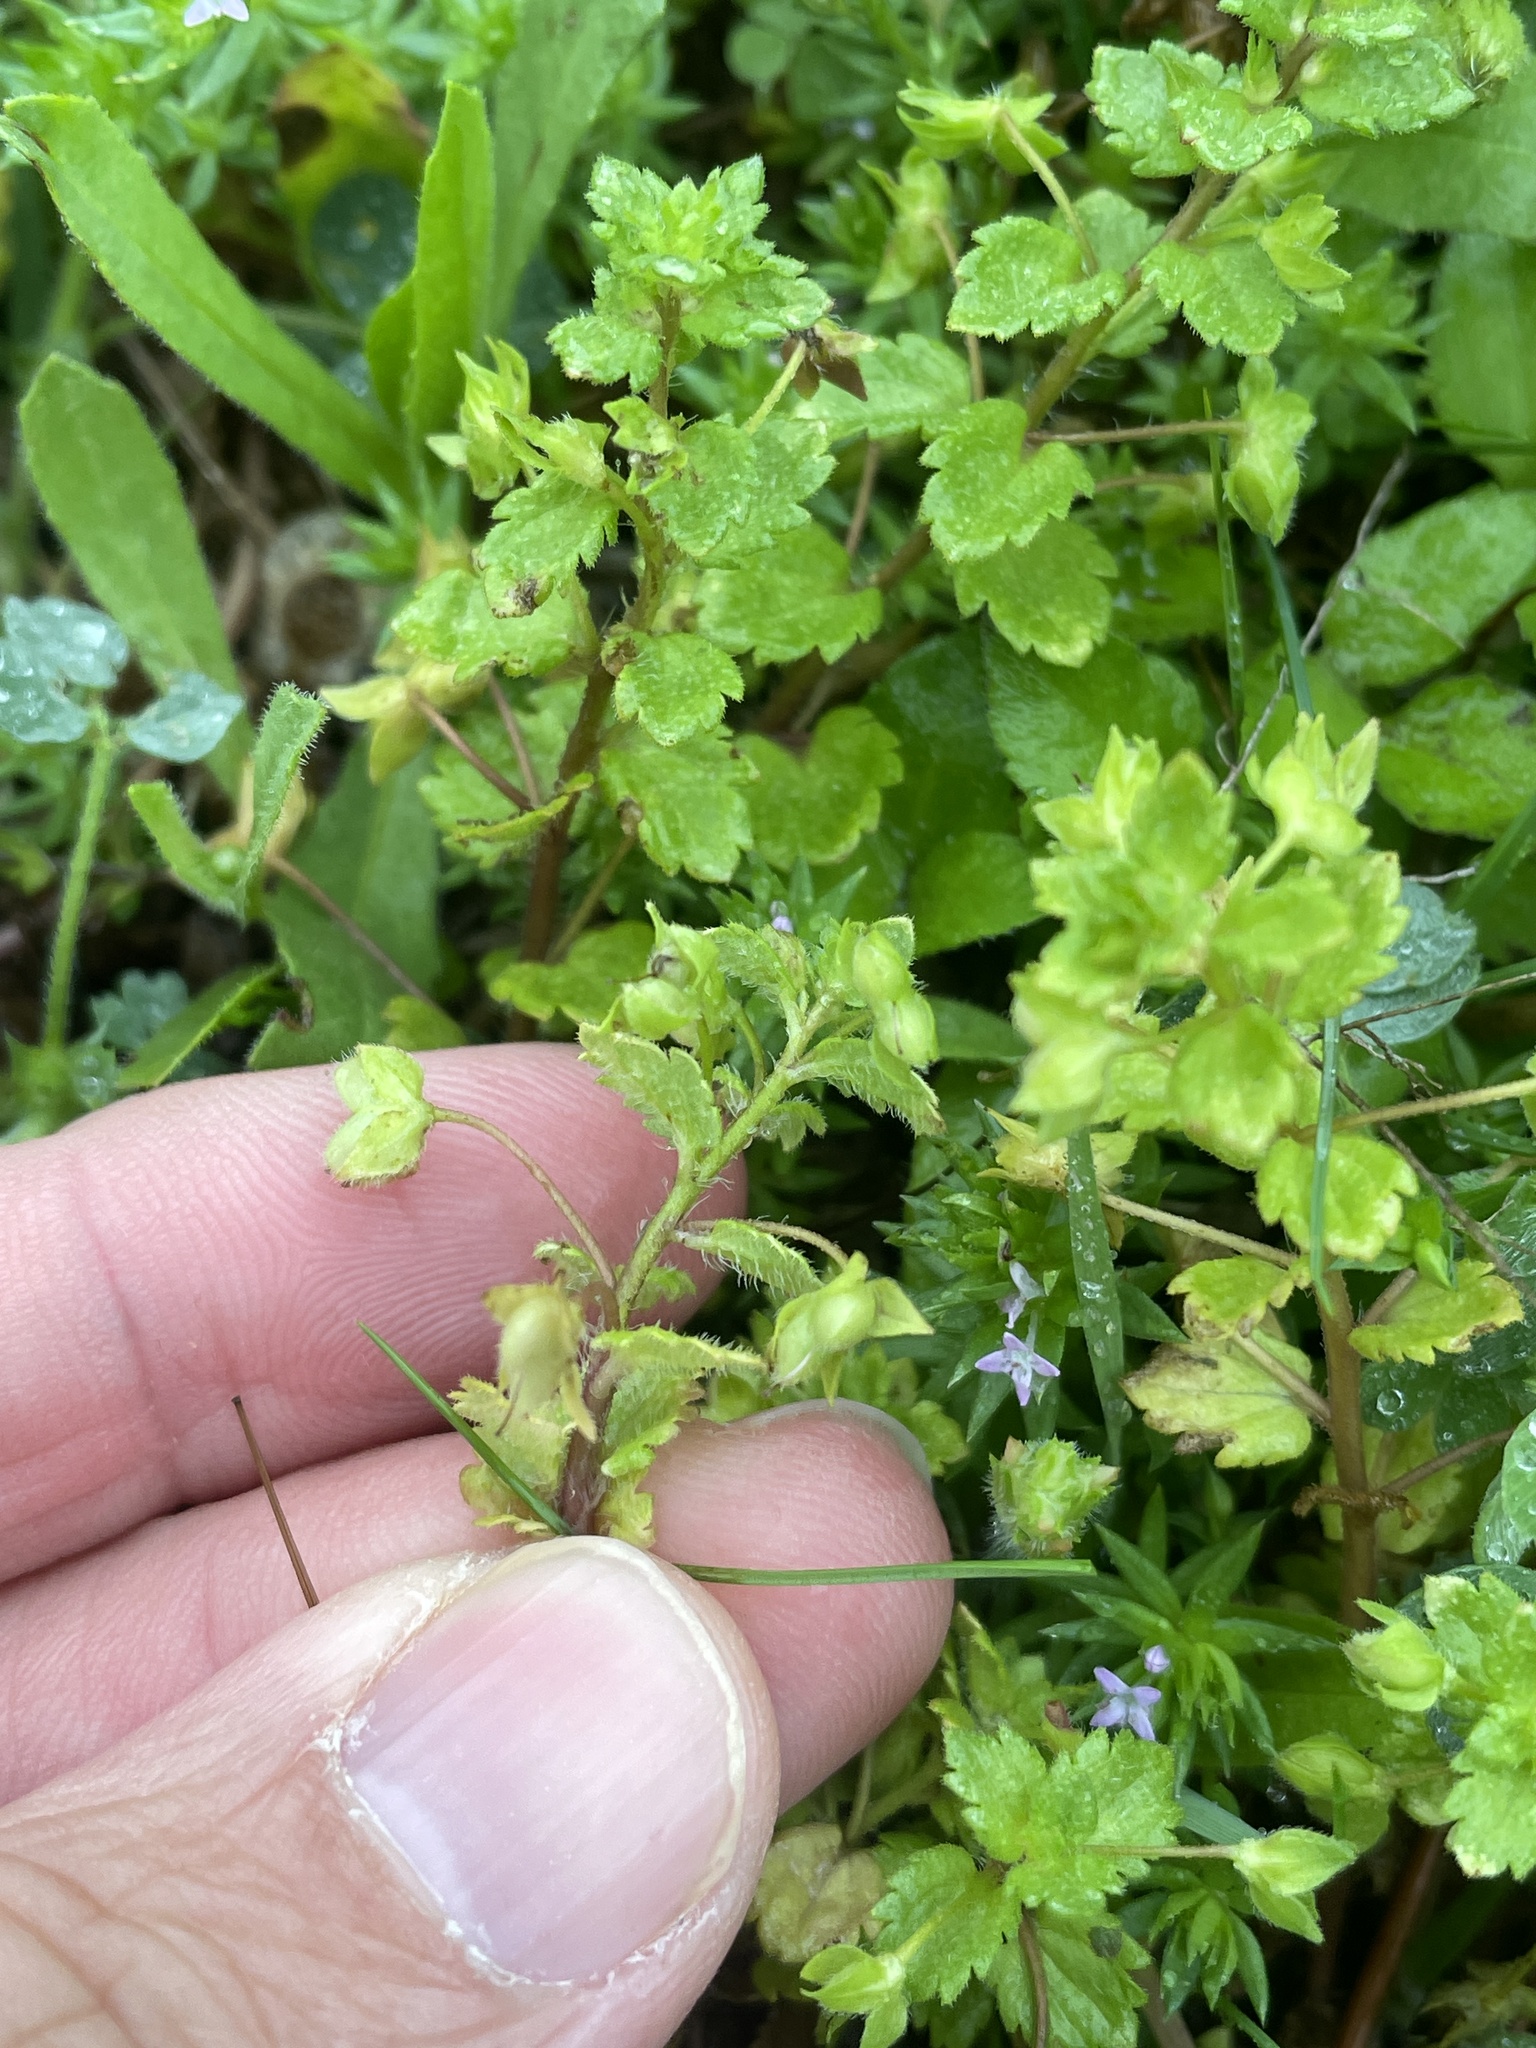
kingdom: Plantae
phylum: Tracheophyta
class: Magnoliopsida
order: Lamiales
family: Plantaginaceae
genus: Veronica
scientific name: Veronica persica
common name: Common field-speedwell
